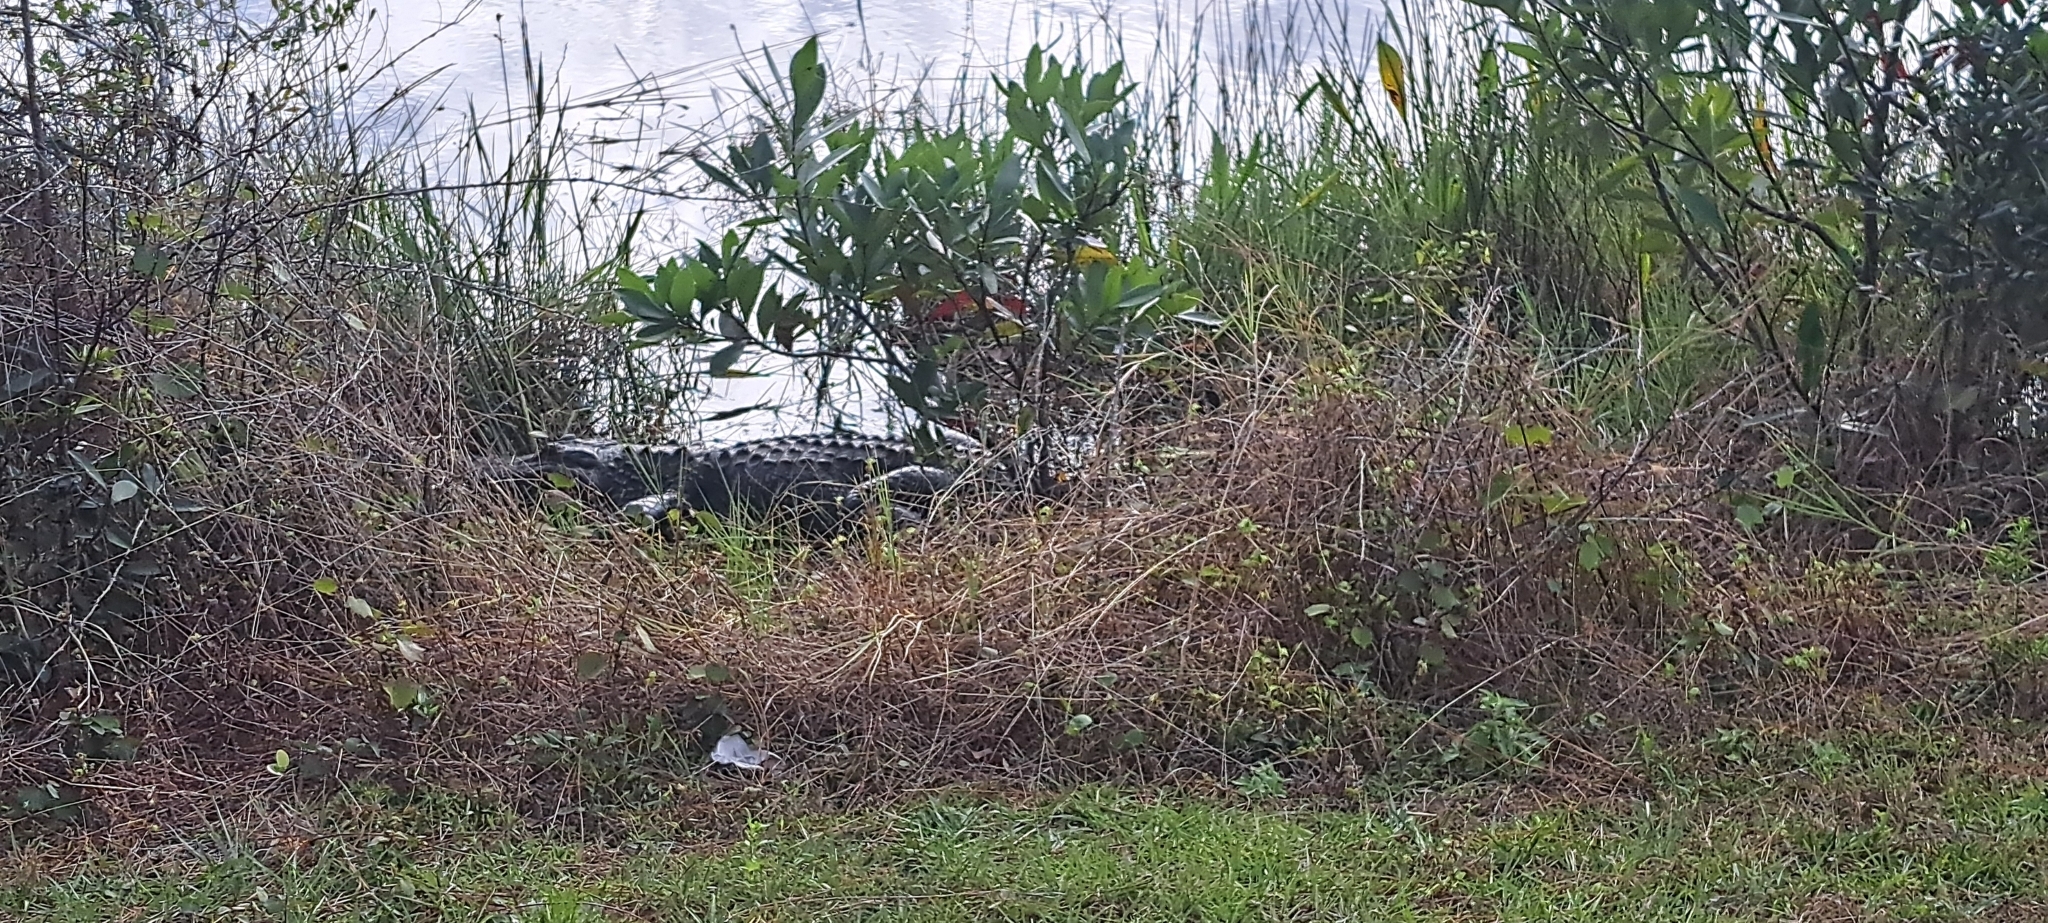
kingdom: Animalia
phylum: Chordata
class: Crocodylia
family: Alligatoridae
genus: Alligator
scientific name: Alligator mississippiensis
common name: American alligator
